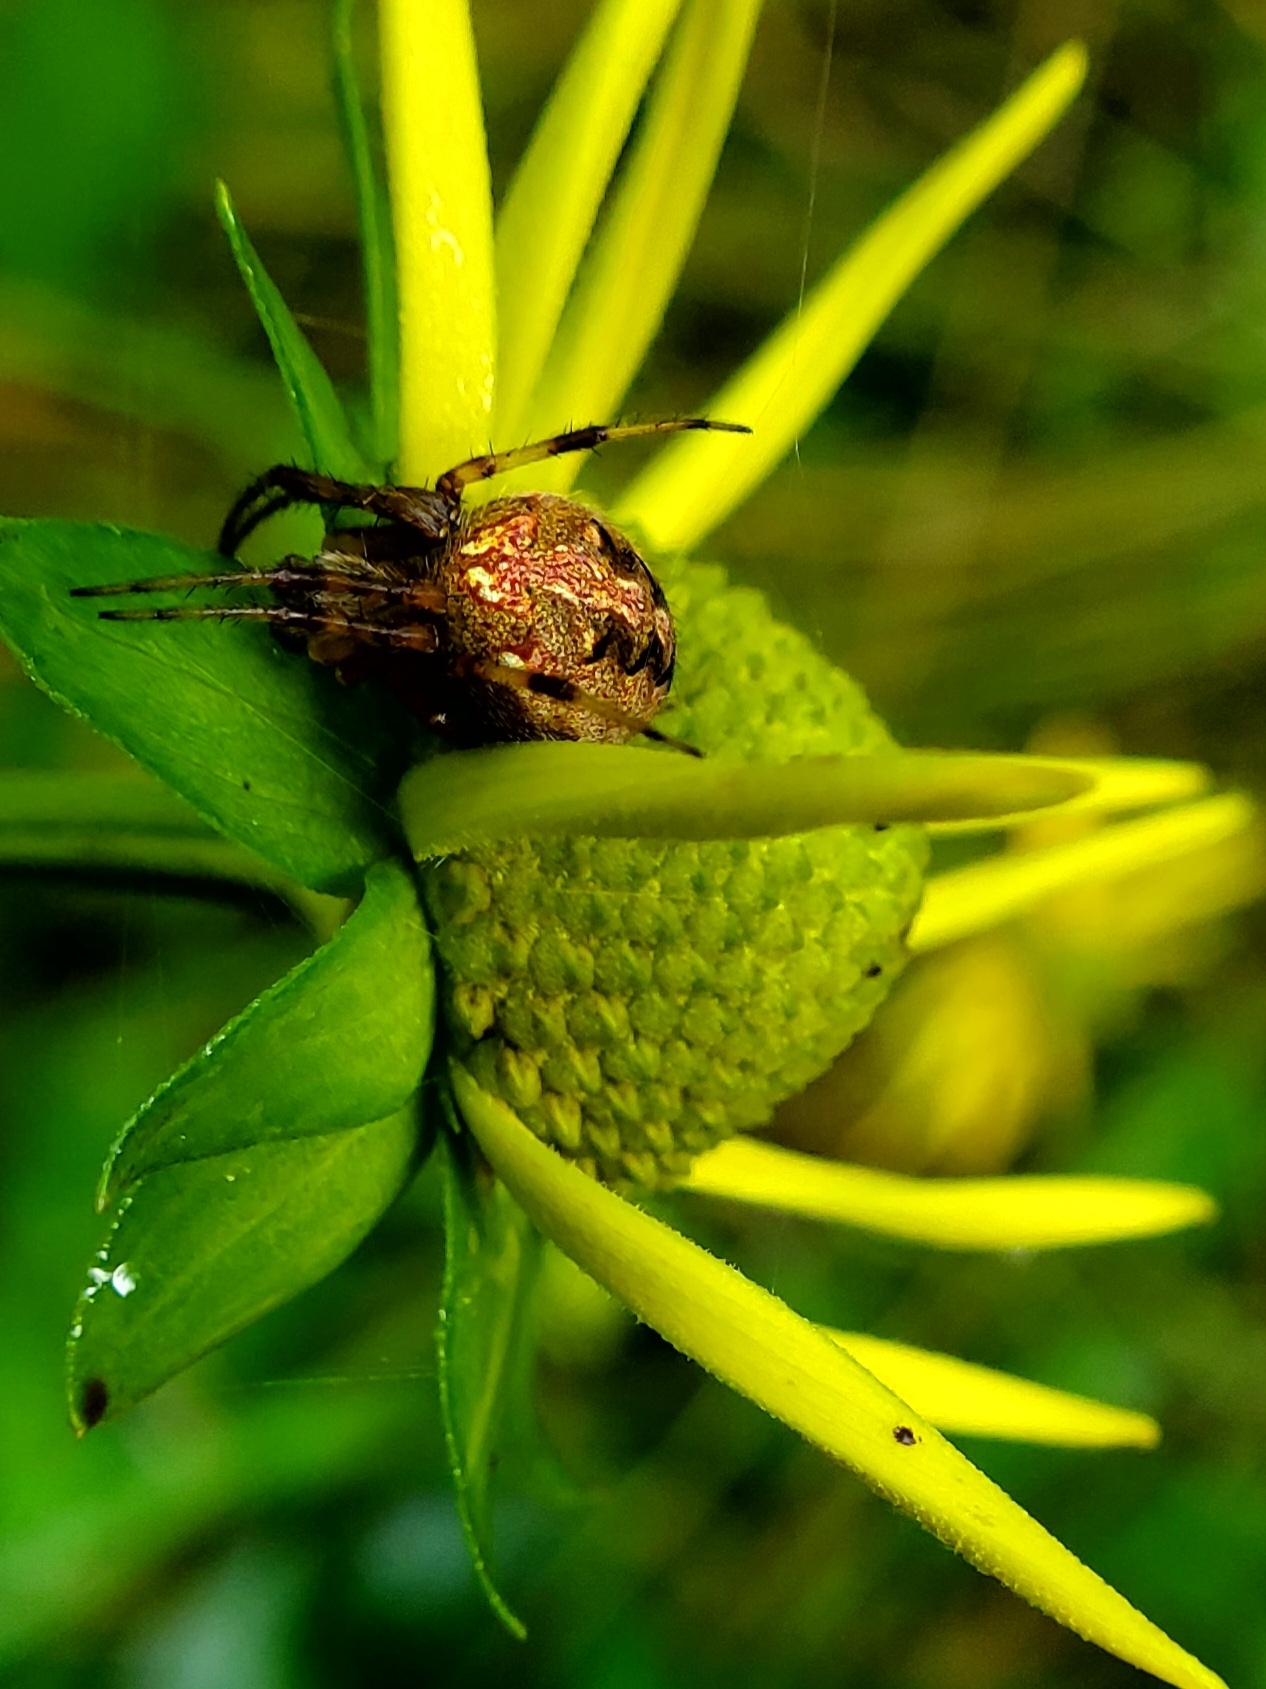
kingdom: Animalia
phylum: Arthropoda
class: Arachnida
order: Araneae
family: Araneidae
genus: Neoscona
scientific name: Neoscona arabesca
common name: Orb weavers
